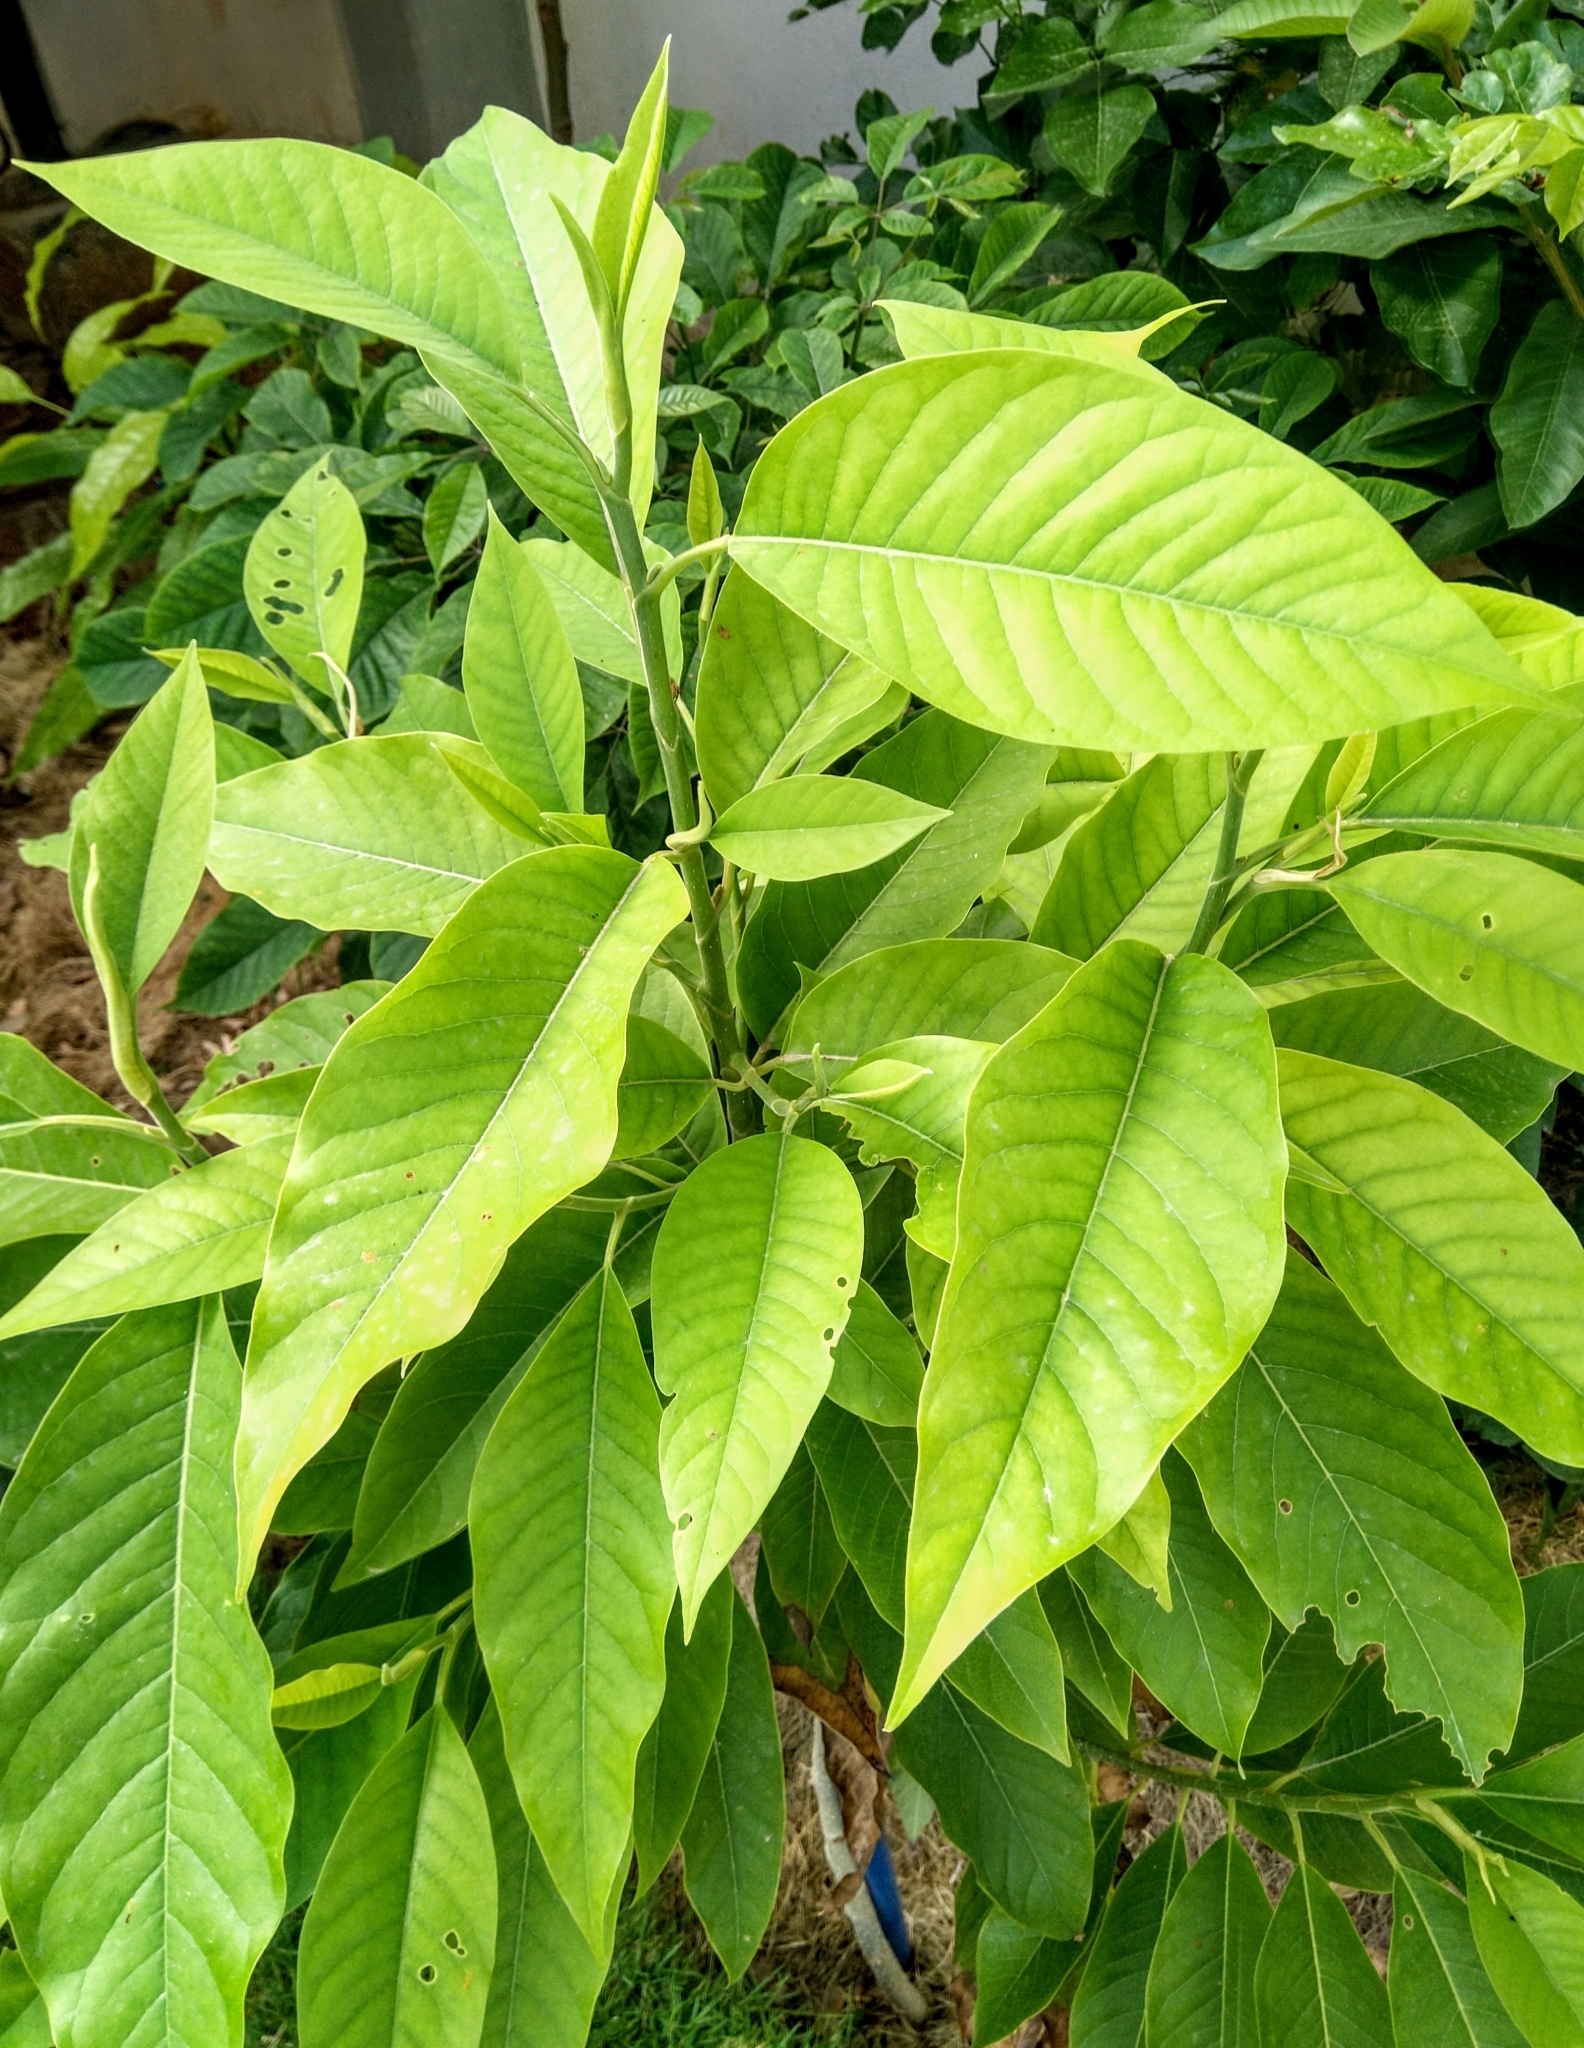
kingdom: Animalia
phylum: Arthropoda
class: Insecta
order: Lepidoptera
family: Papilionidae
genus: Graphium
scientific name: Graphium doson
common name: Common jay
